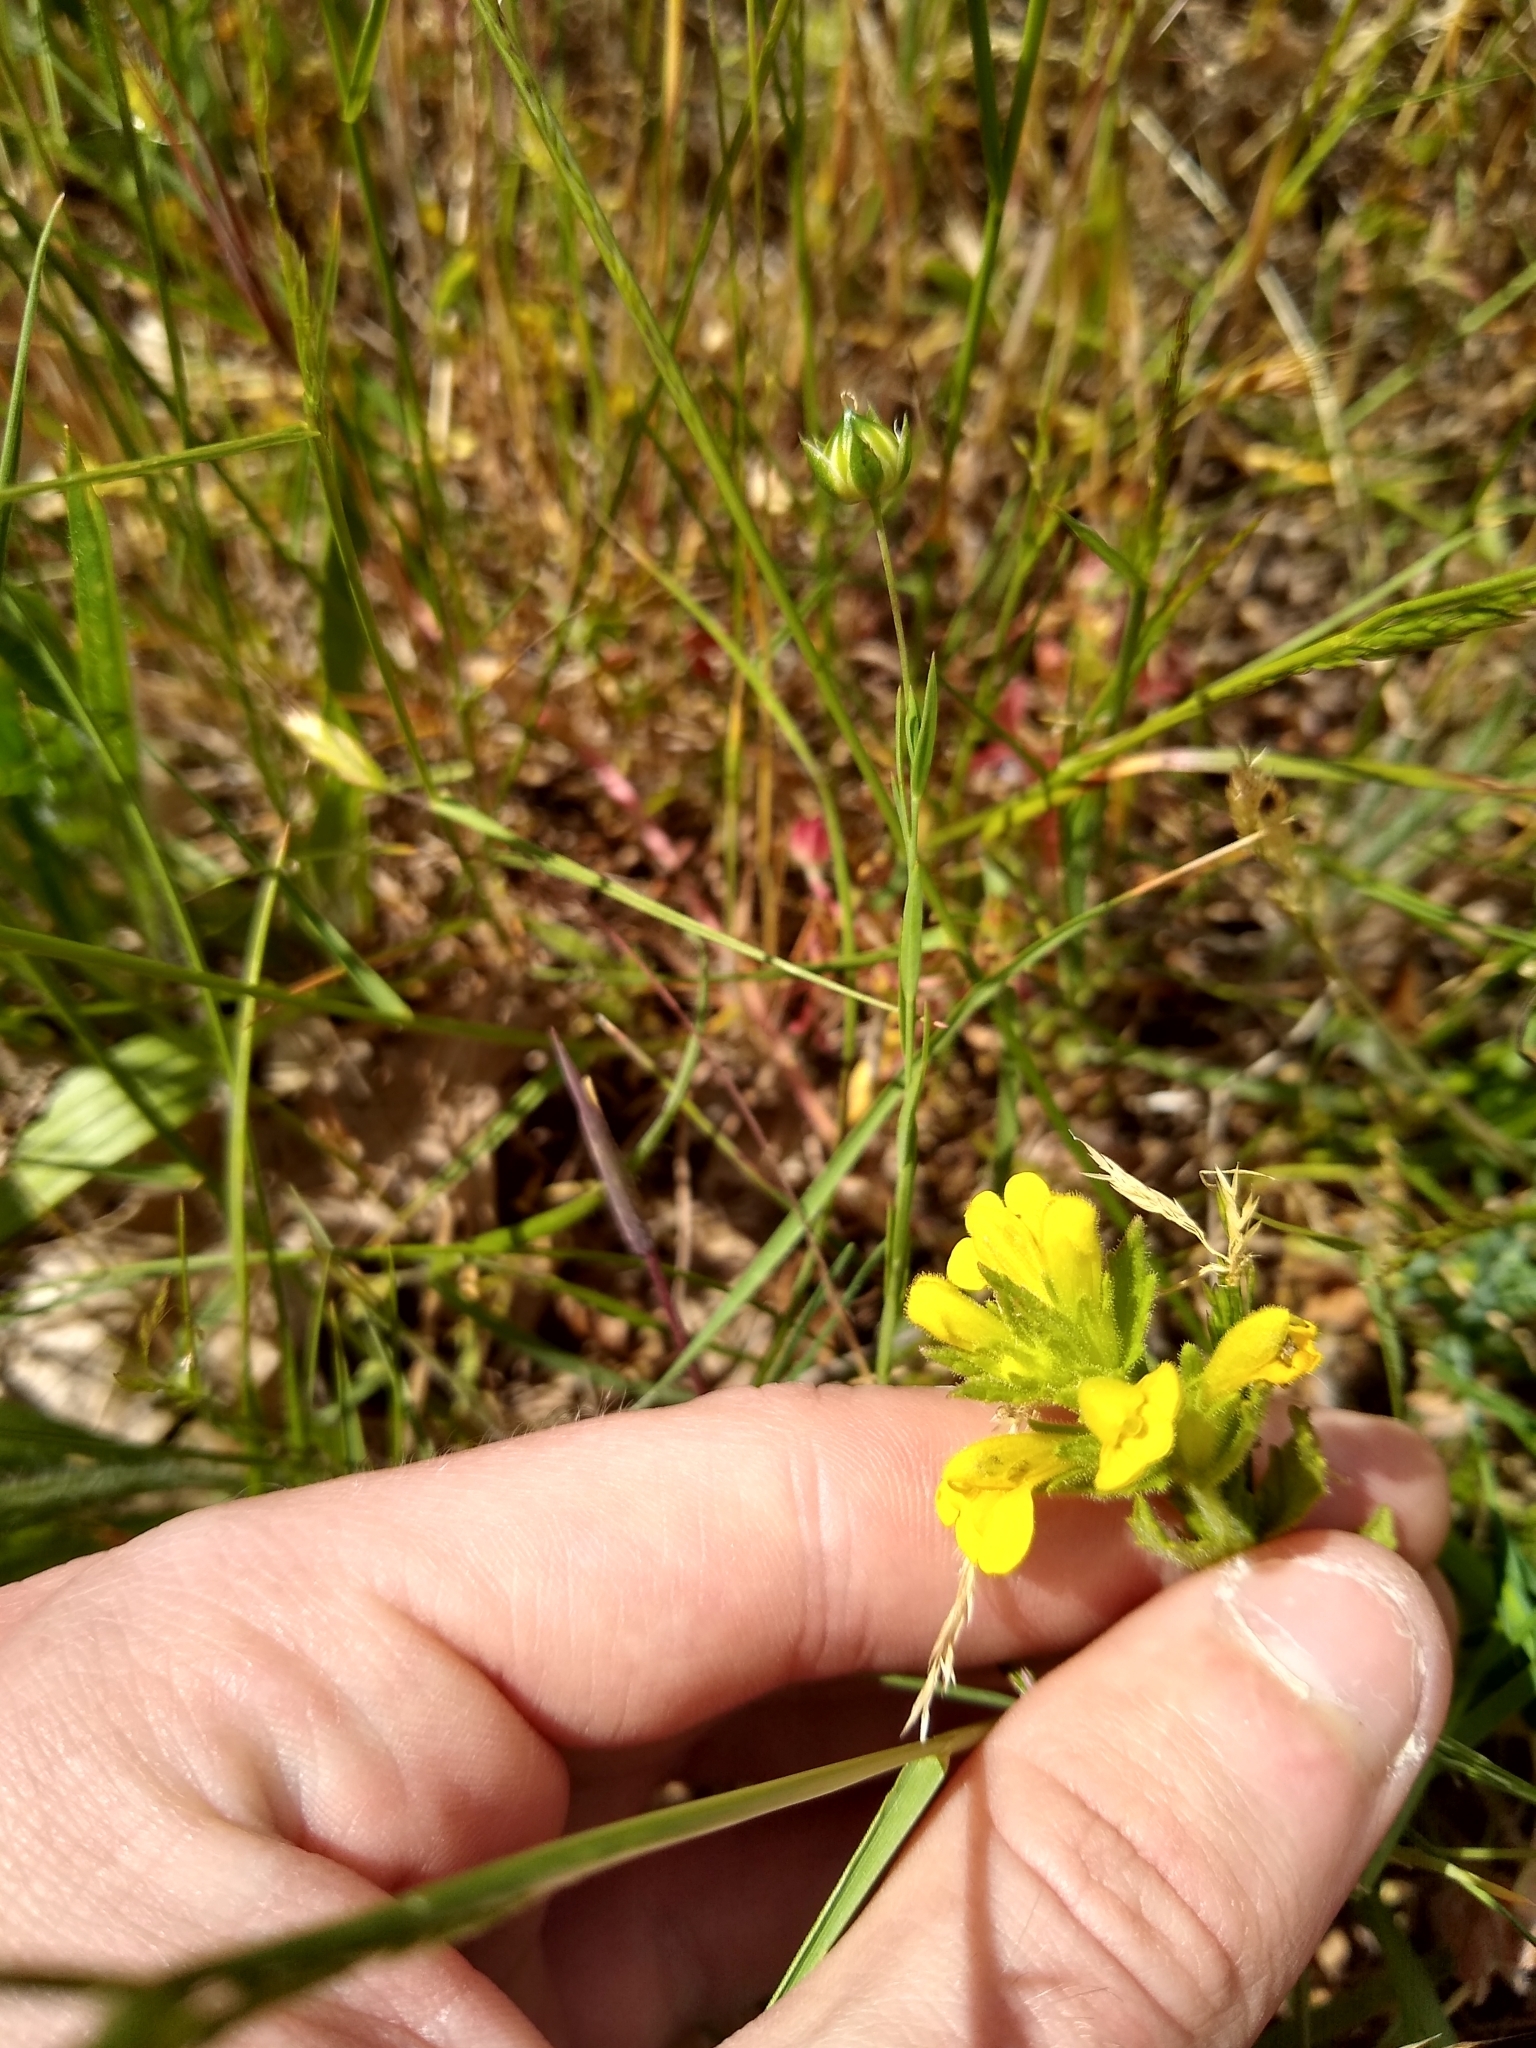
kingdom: Plantae
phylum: Tracheophyta
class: Magnoliopsida
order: Lamiales
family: Orobanchaceae
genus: Bellardia
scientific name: Bellardia viscosa
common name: Sticky parentucellia
